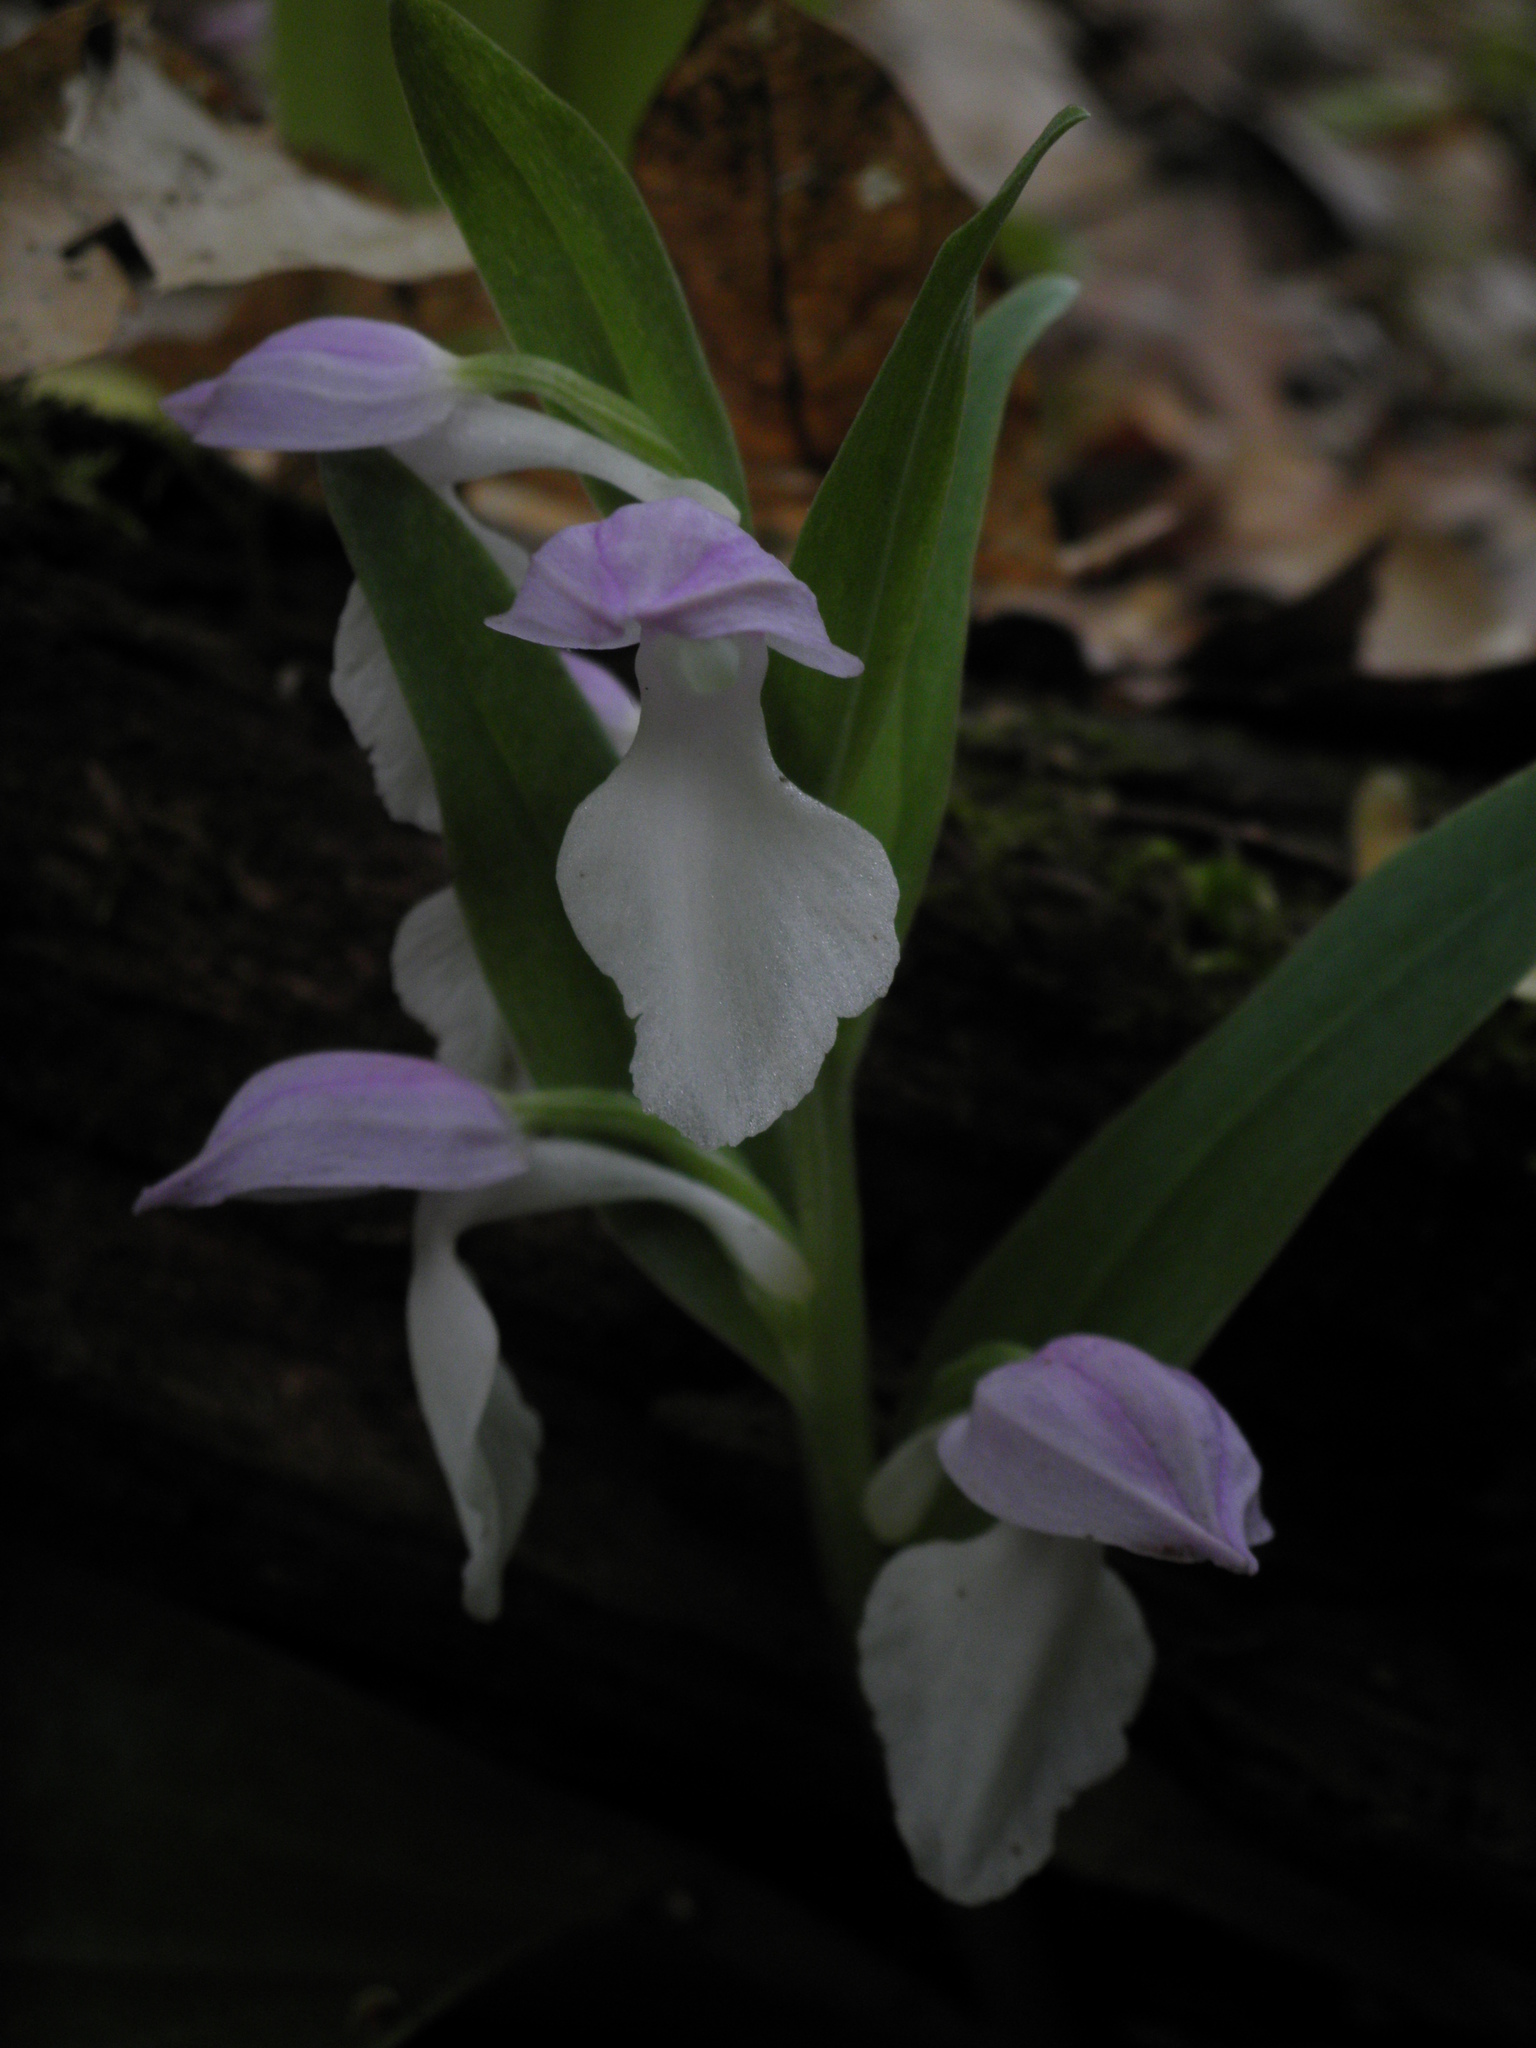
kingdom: Plantae
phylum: Tracheophyta
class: Liliopsida
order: Asparagales
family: Orchidaceae
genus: Galearis
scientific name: Galearis spectabilis
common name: Purple-hooded orchis
